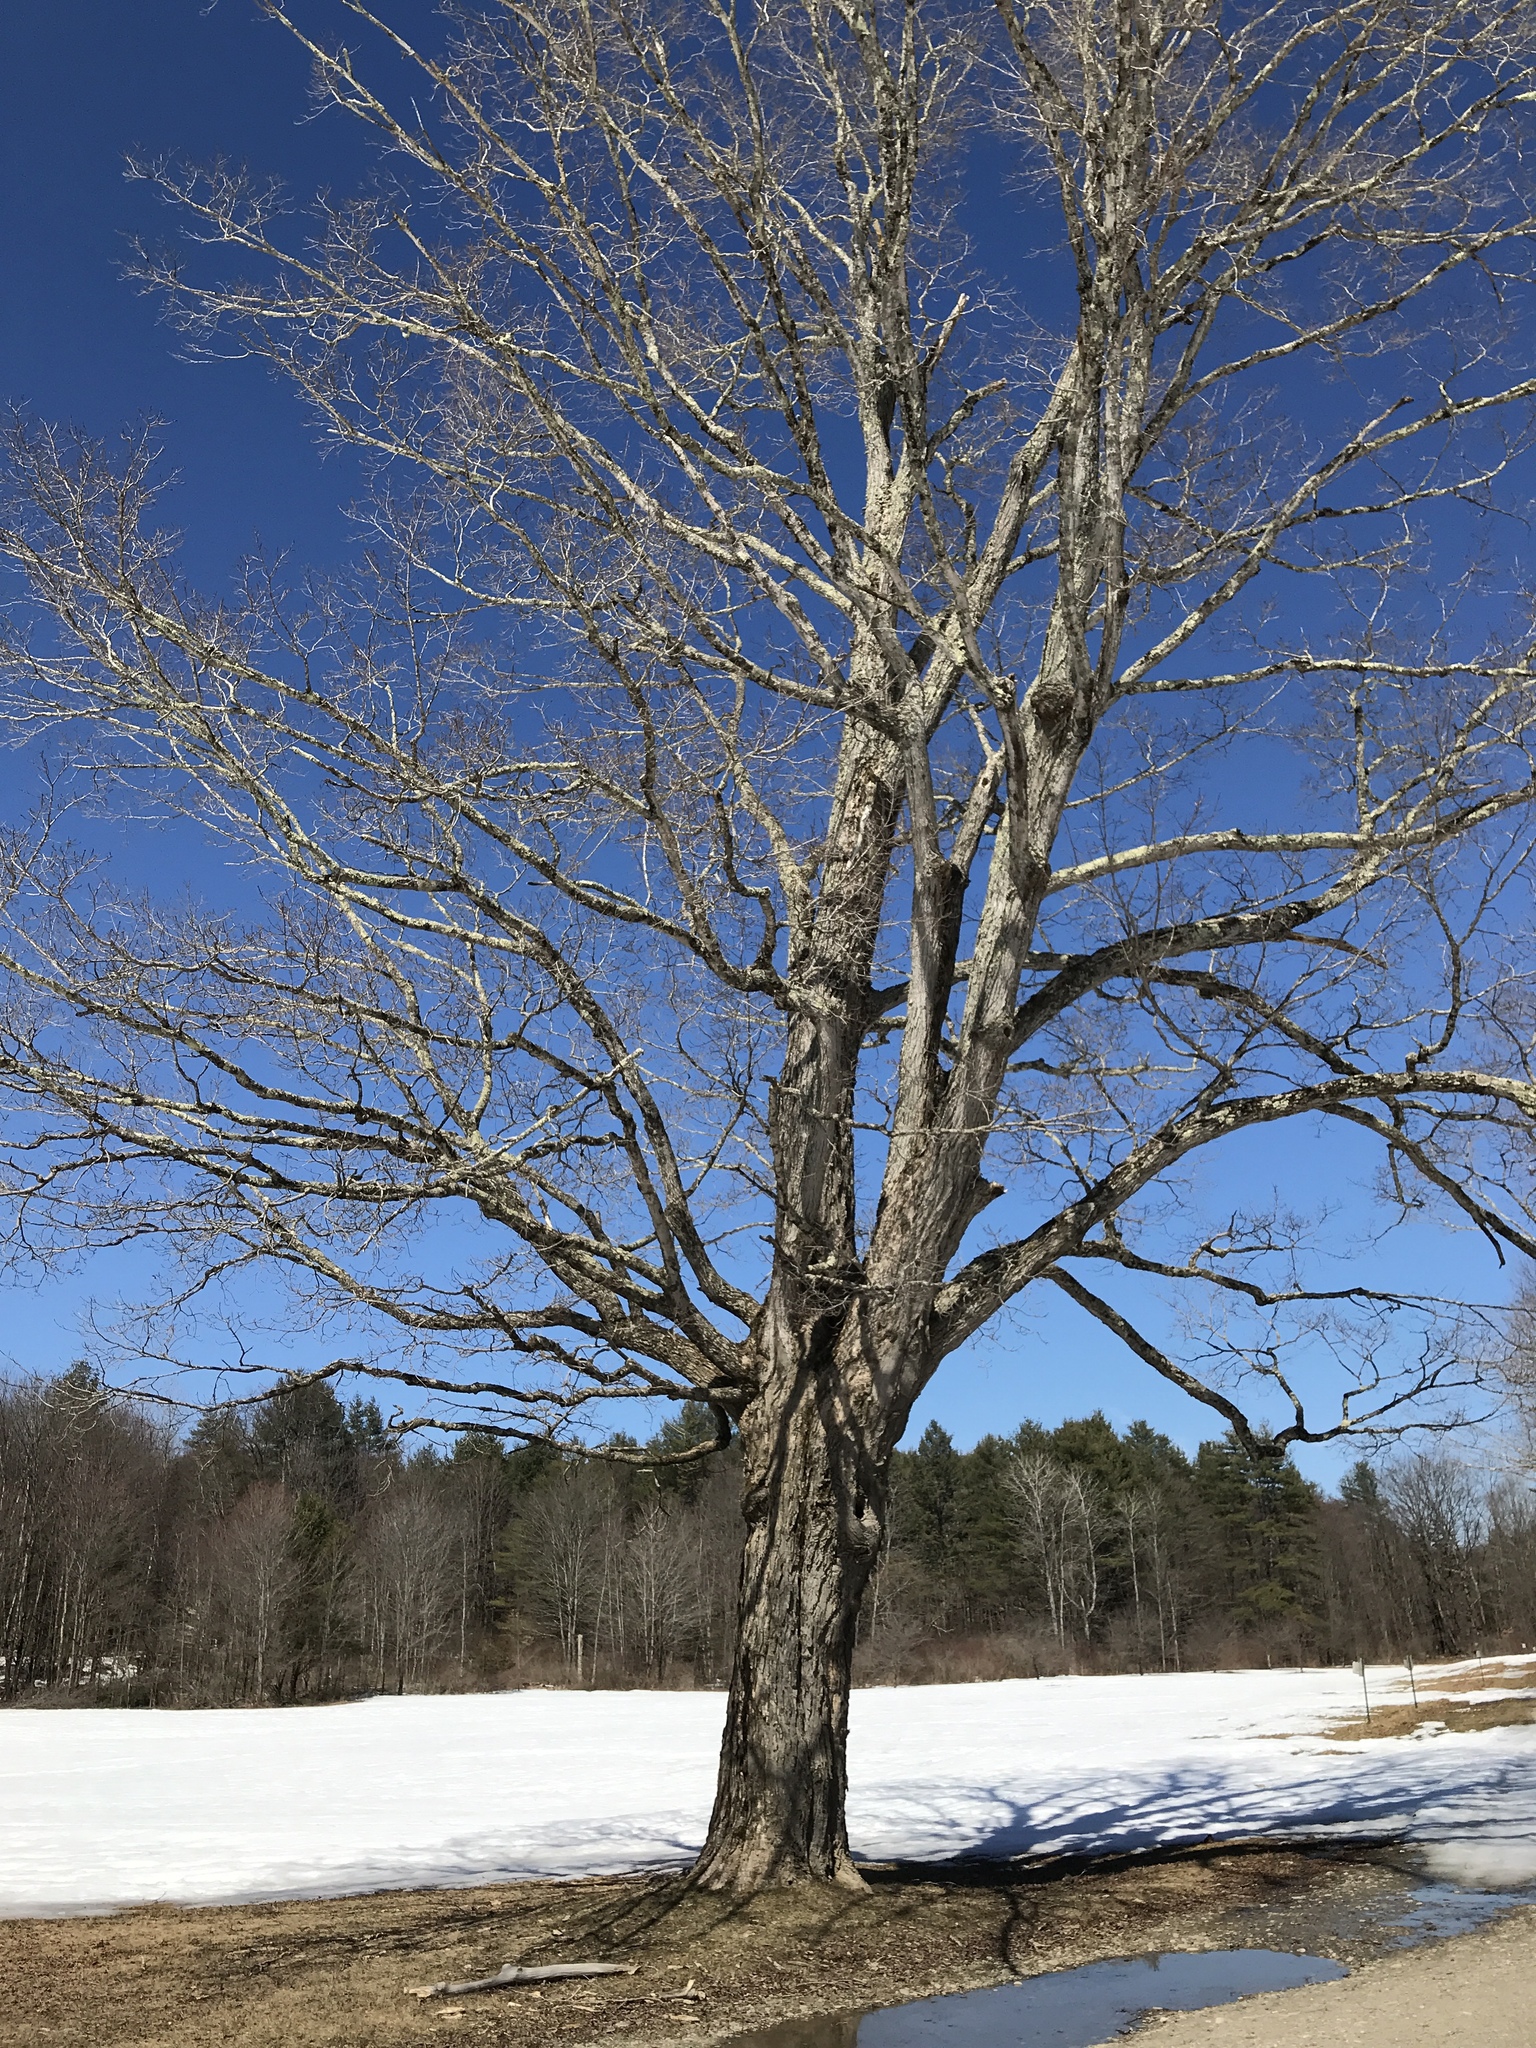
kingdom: Plantae
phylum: Tracheophyta
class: Magnoliopsida
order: Sapindales
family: Sapindaceae
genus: Acer
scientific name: Acer saccharum
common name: Sugar maple
